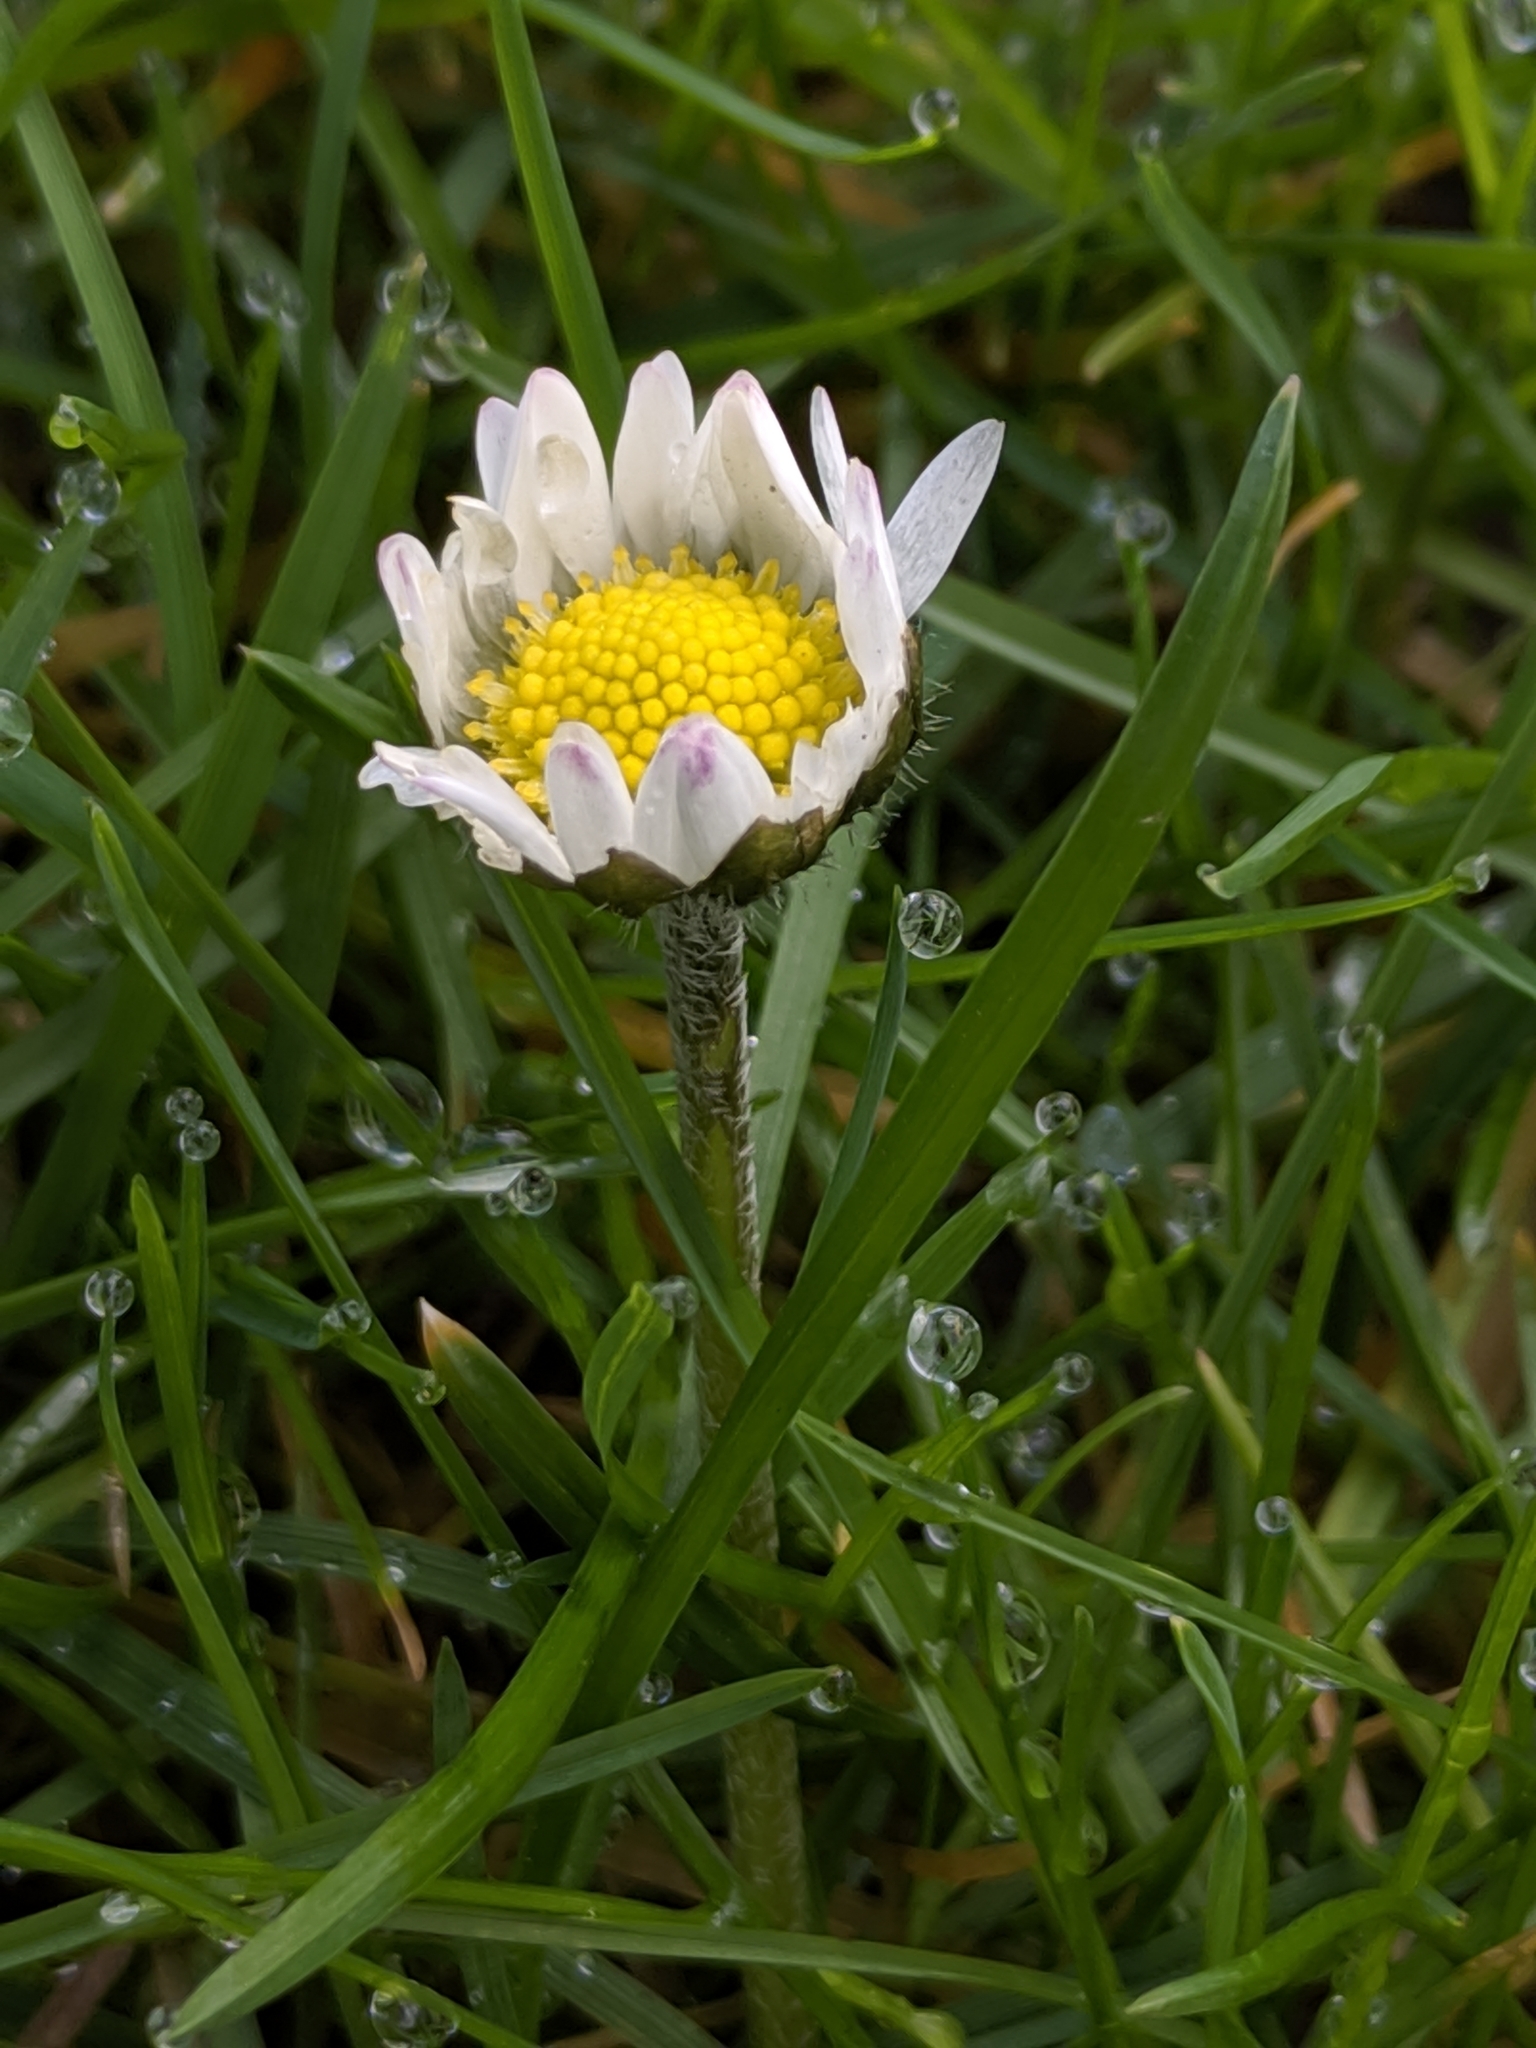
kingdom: Plantae
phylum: Tracheophyta
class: Magnoliopsida
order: Asterales
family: Asteraceae
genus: Bellis
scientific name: Bellis perennis
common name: Lawndaisy
